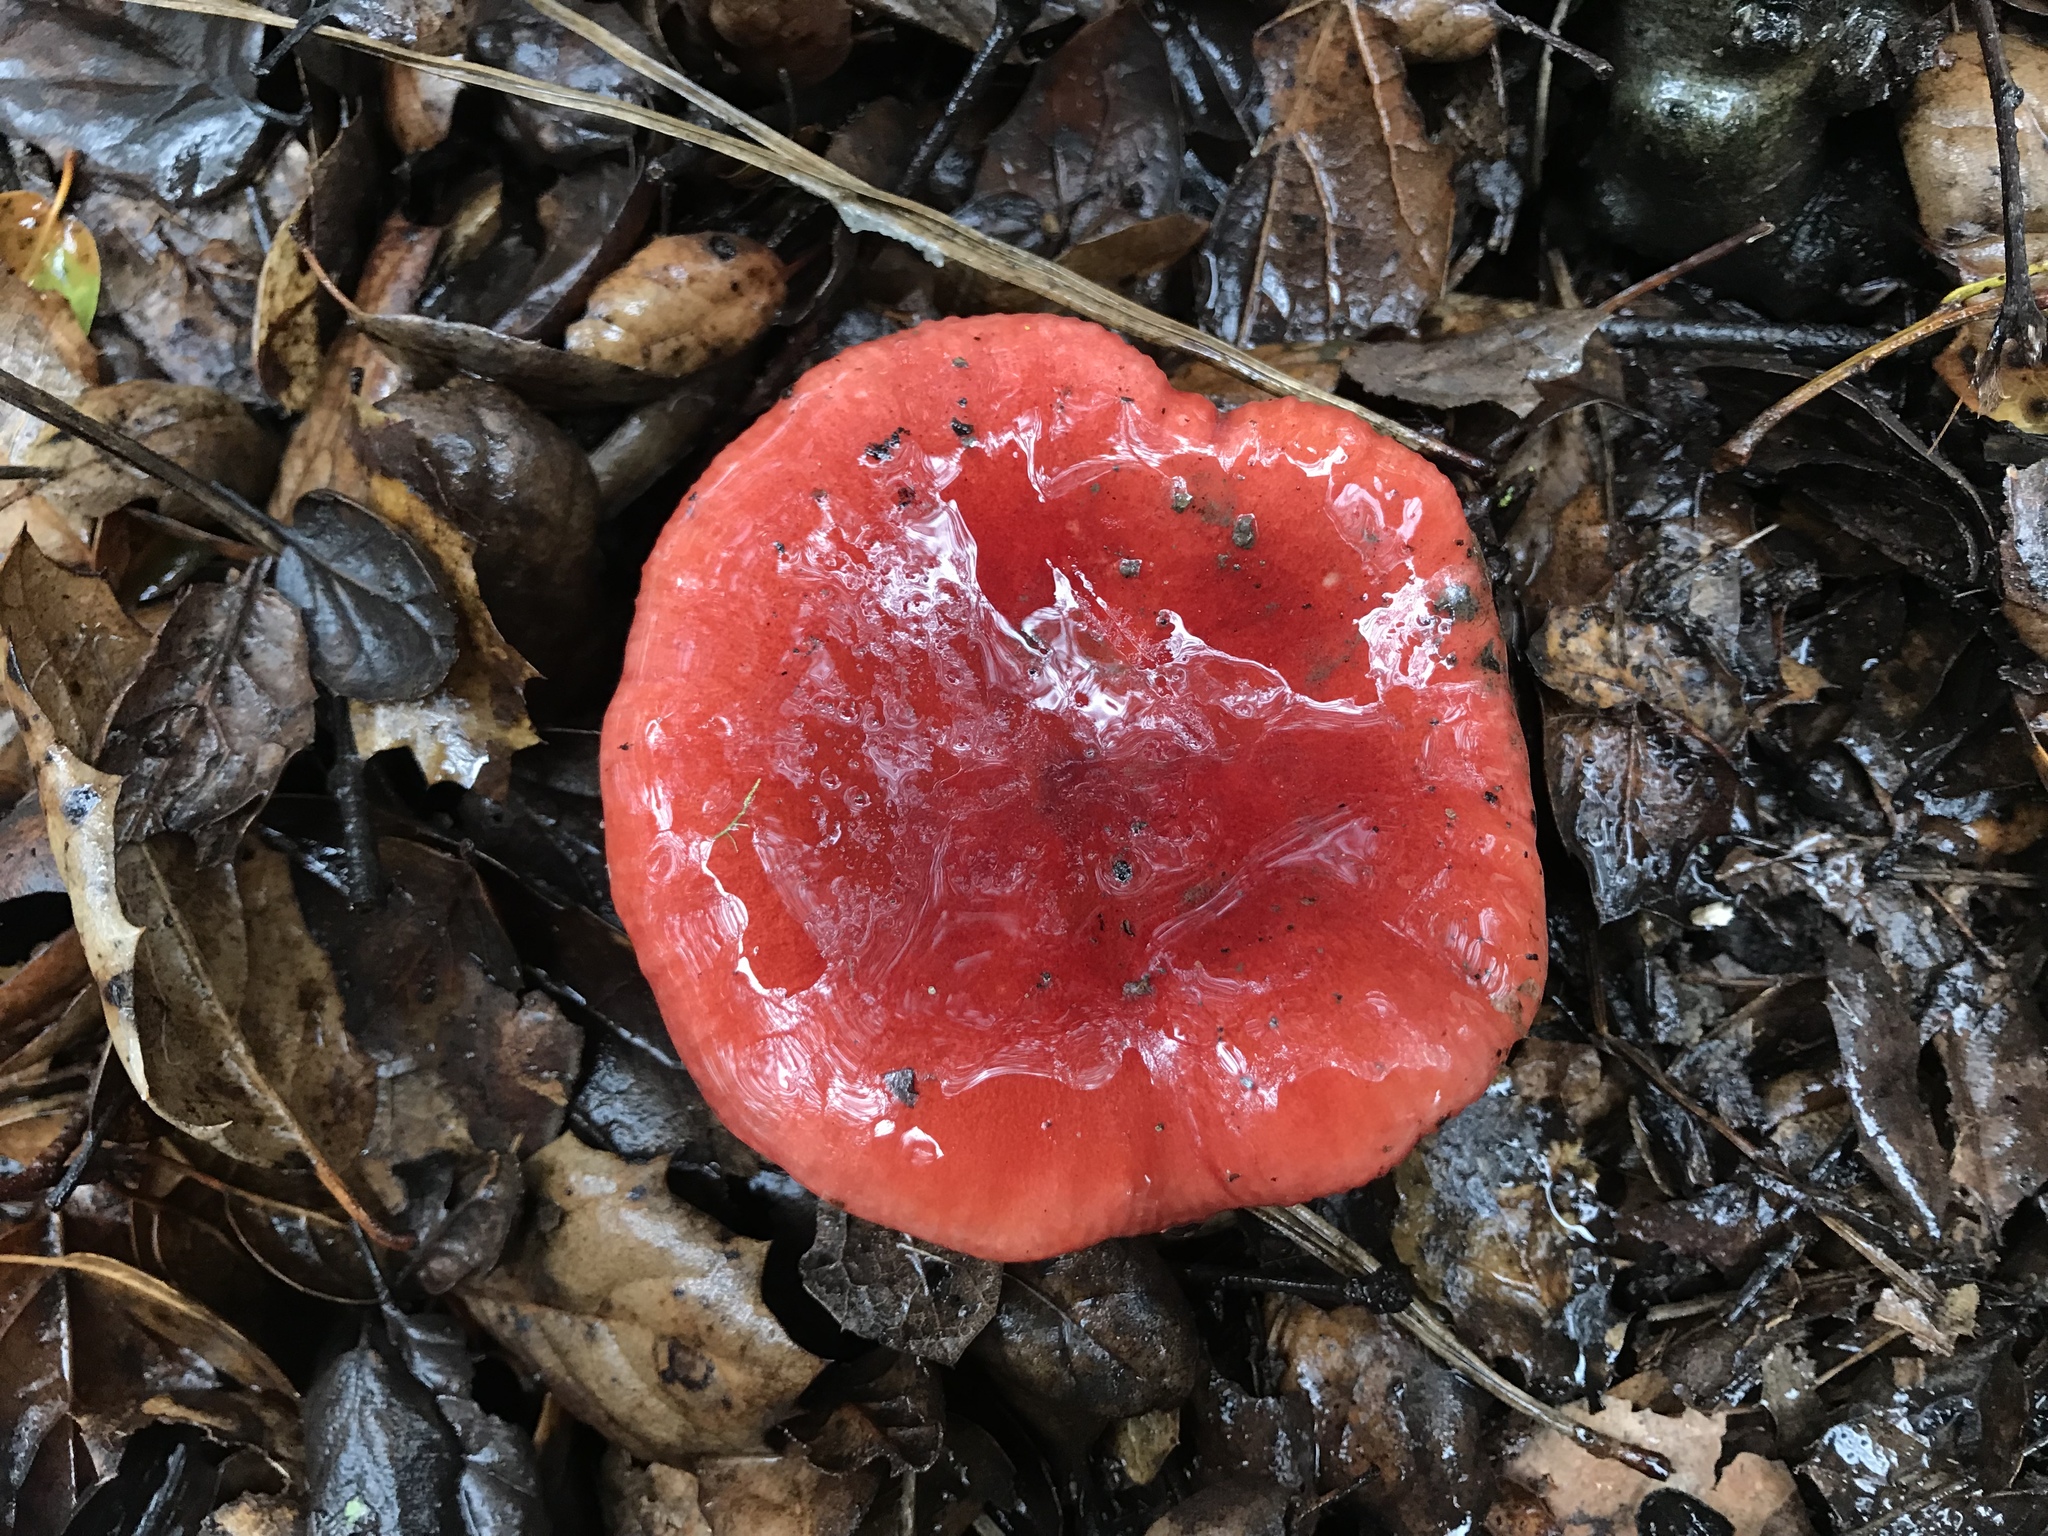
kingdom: Fungi
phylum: Basidiomycota
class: Agaricomycetes
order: Russulales
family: Russulaceae
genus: Russula
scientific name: Russula rhodocephala
